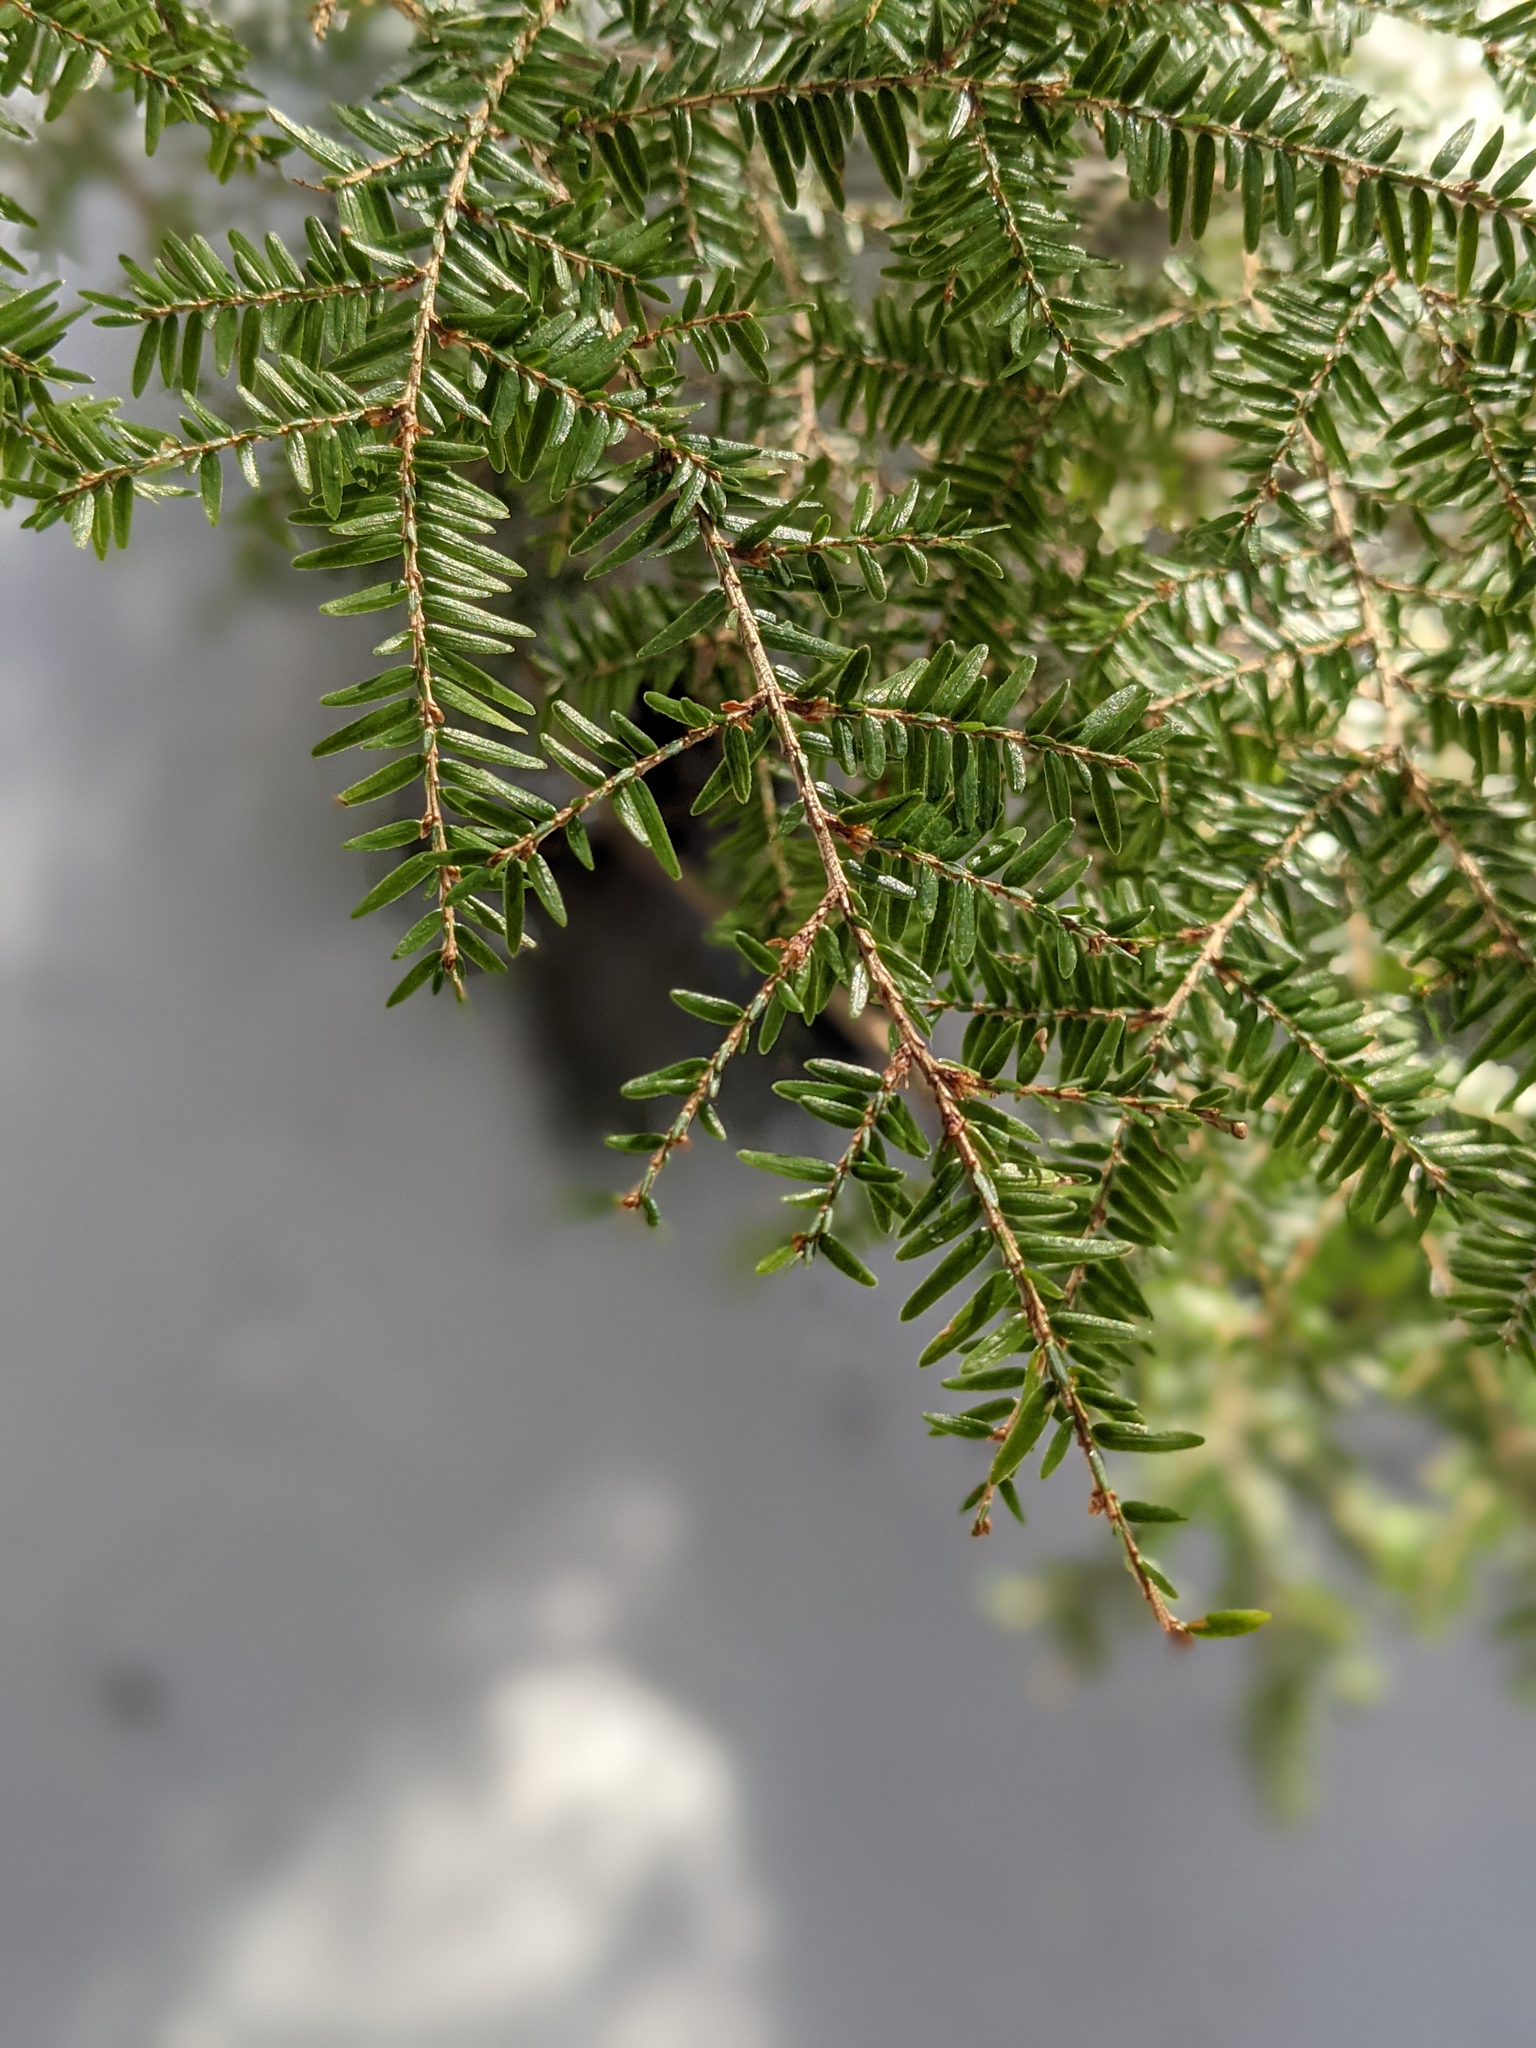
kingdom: Plantae
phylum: Tracheophyta
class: Pinopsida
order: Pinales
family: Pinaceae
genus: Tsuga
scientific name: Tsuga canadensis
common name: Eastern hemlock
